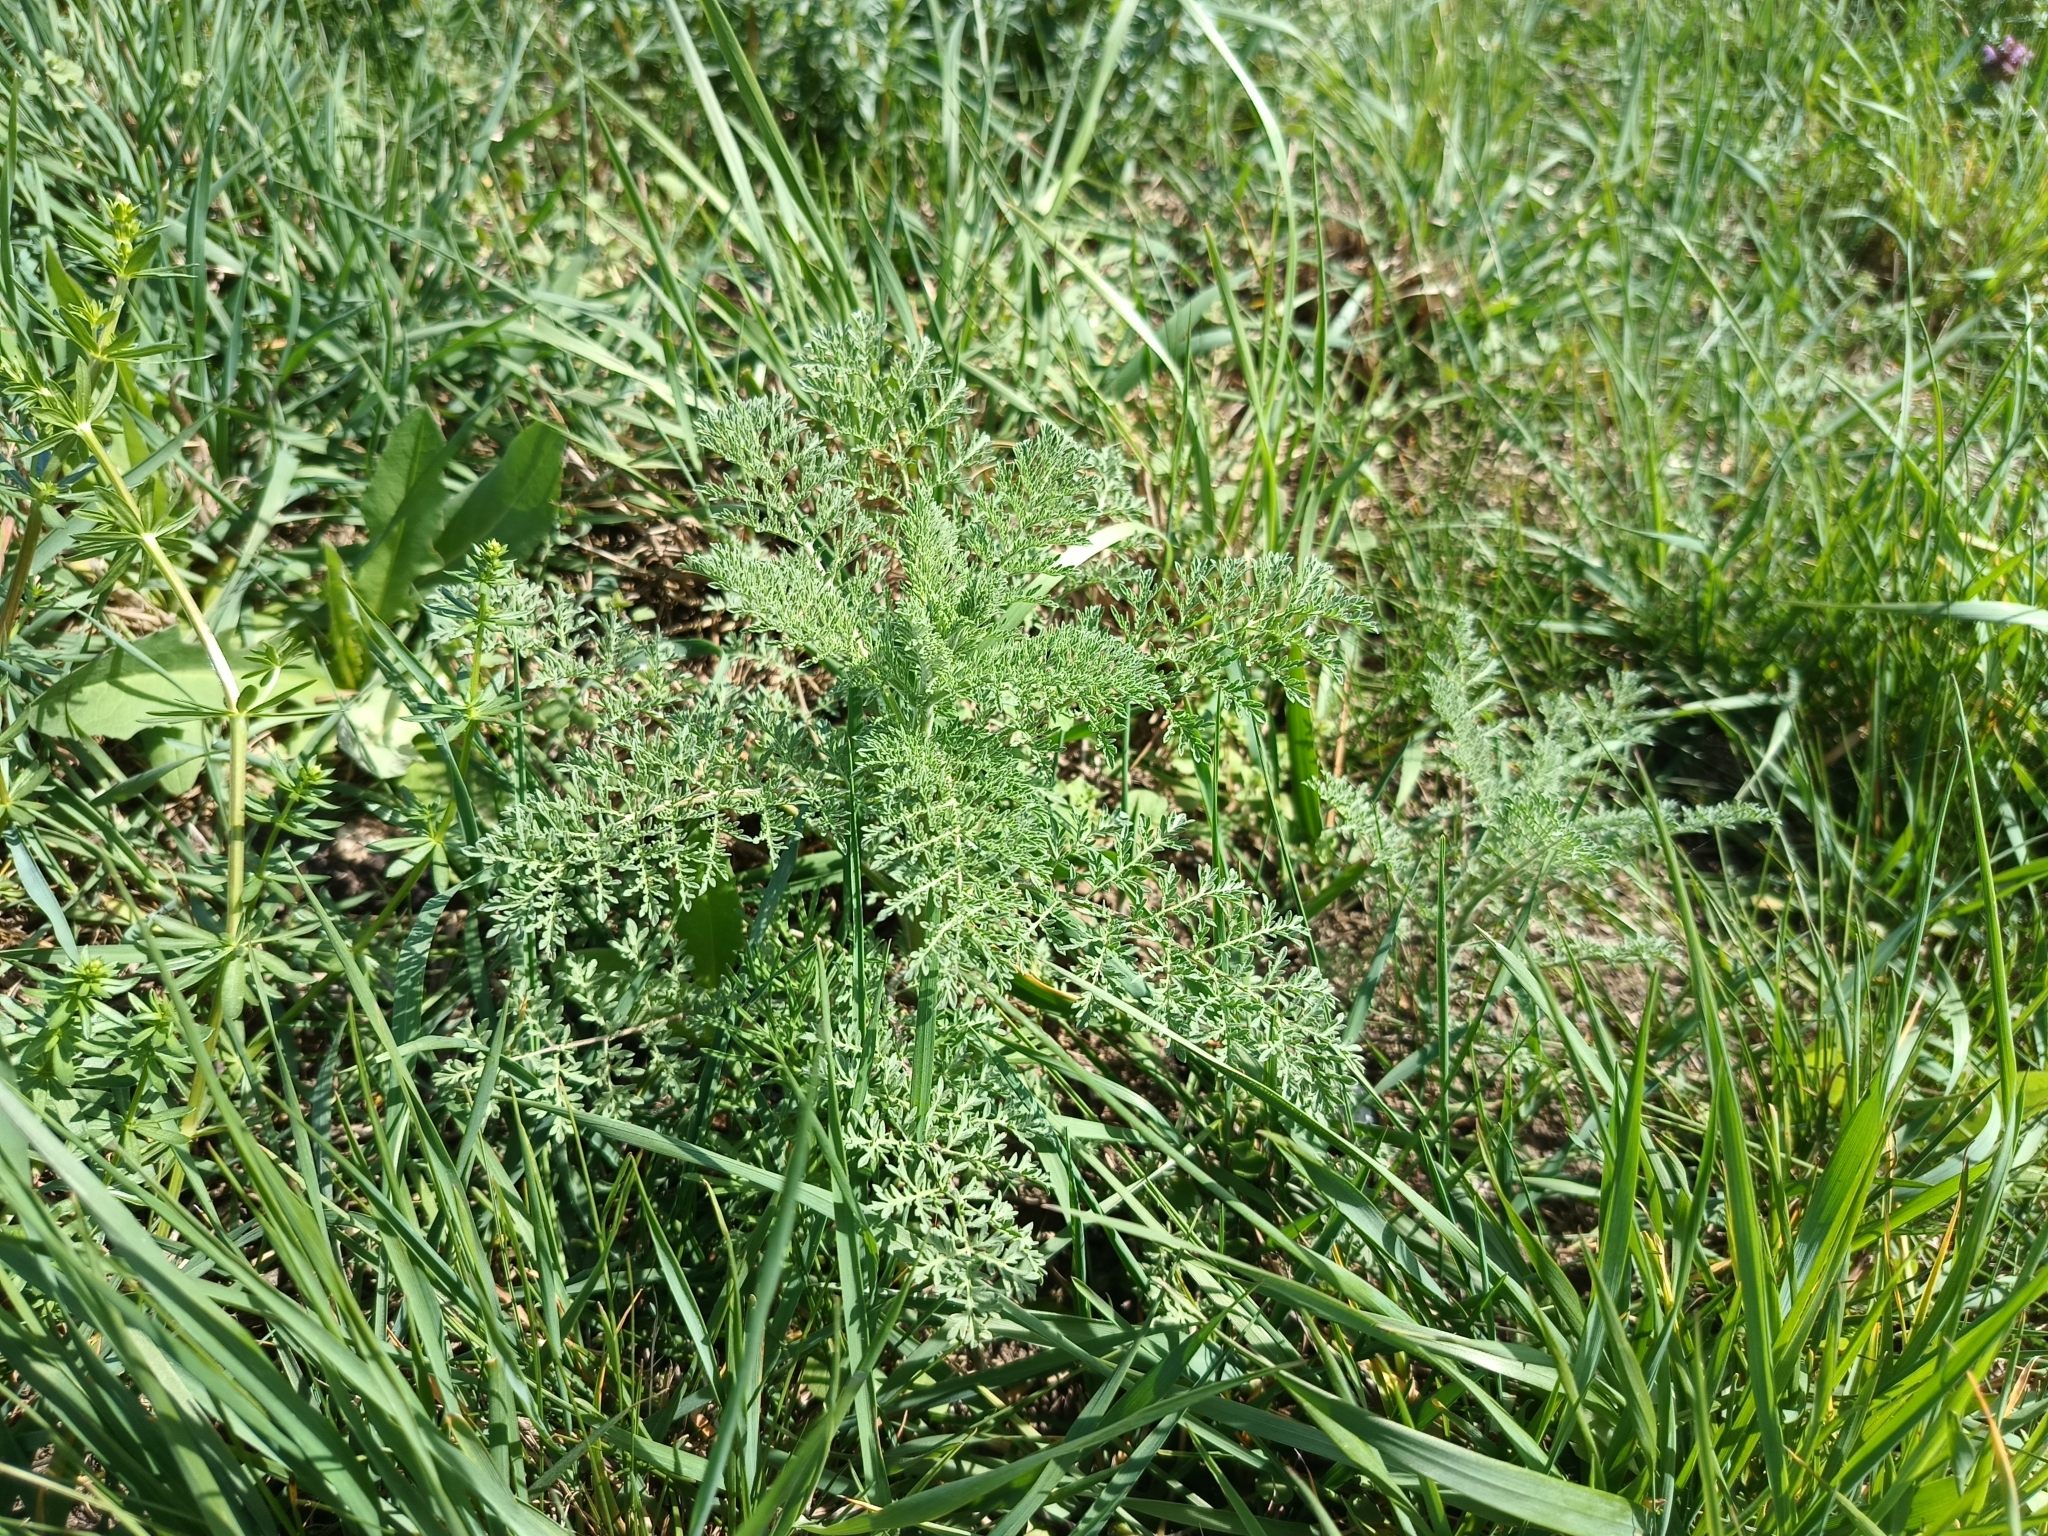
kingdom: Plantae
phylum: Tracheophyta
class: Magnoliopsida
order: Brassicales
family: Brassicaceae
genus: Descurainia
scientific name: Descurainia sophia
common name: Flixweed
